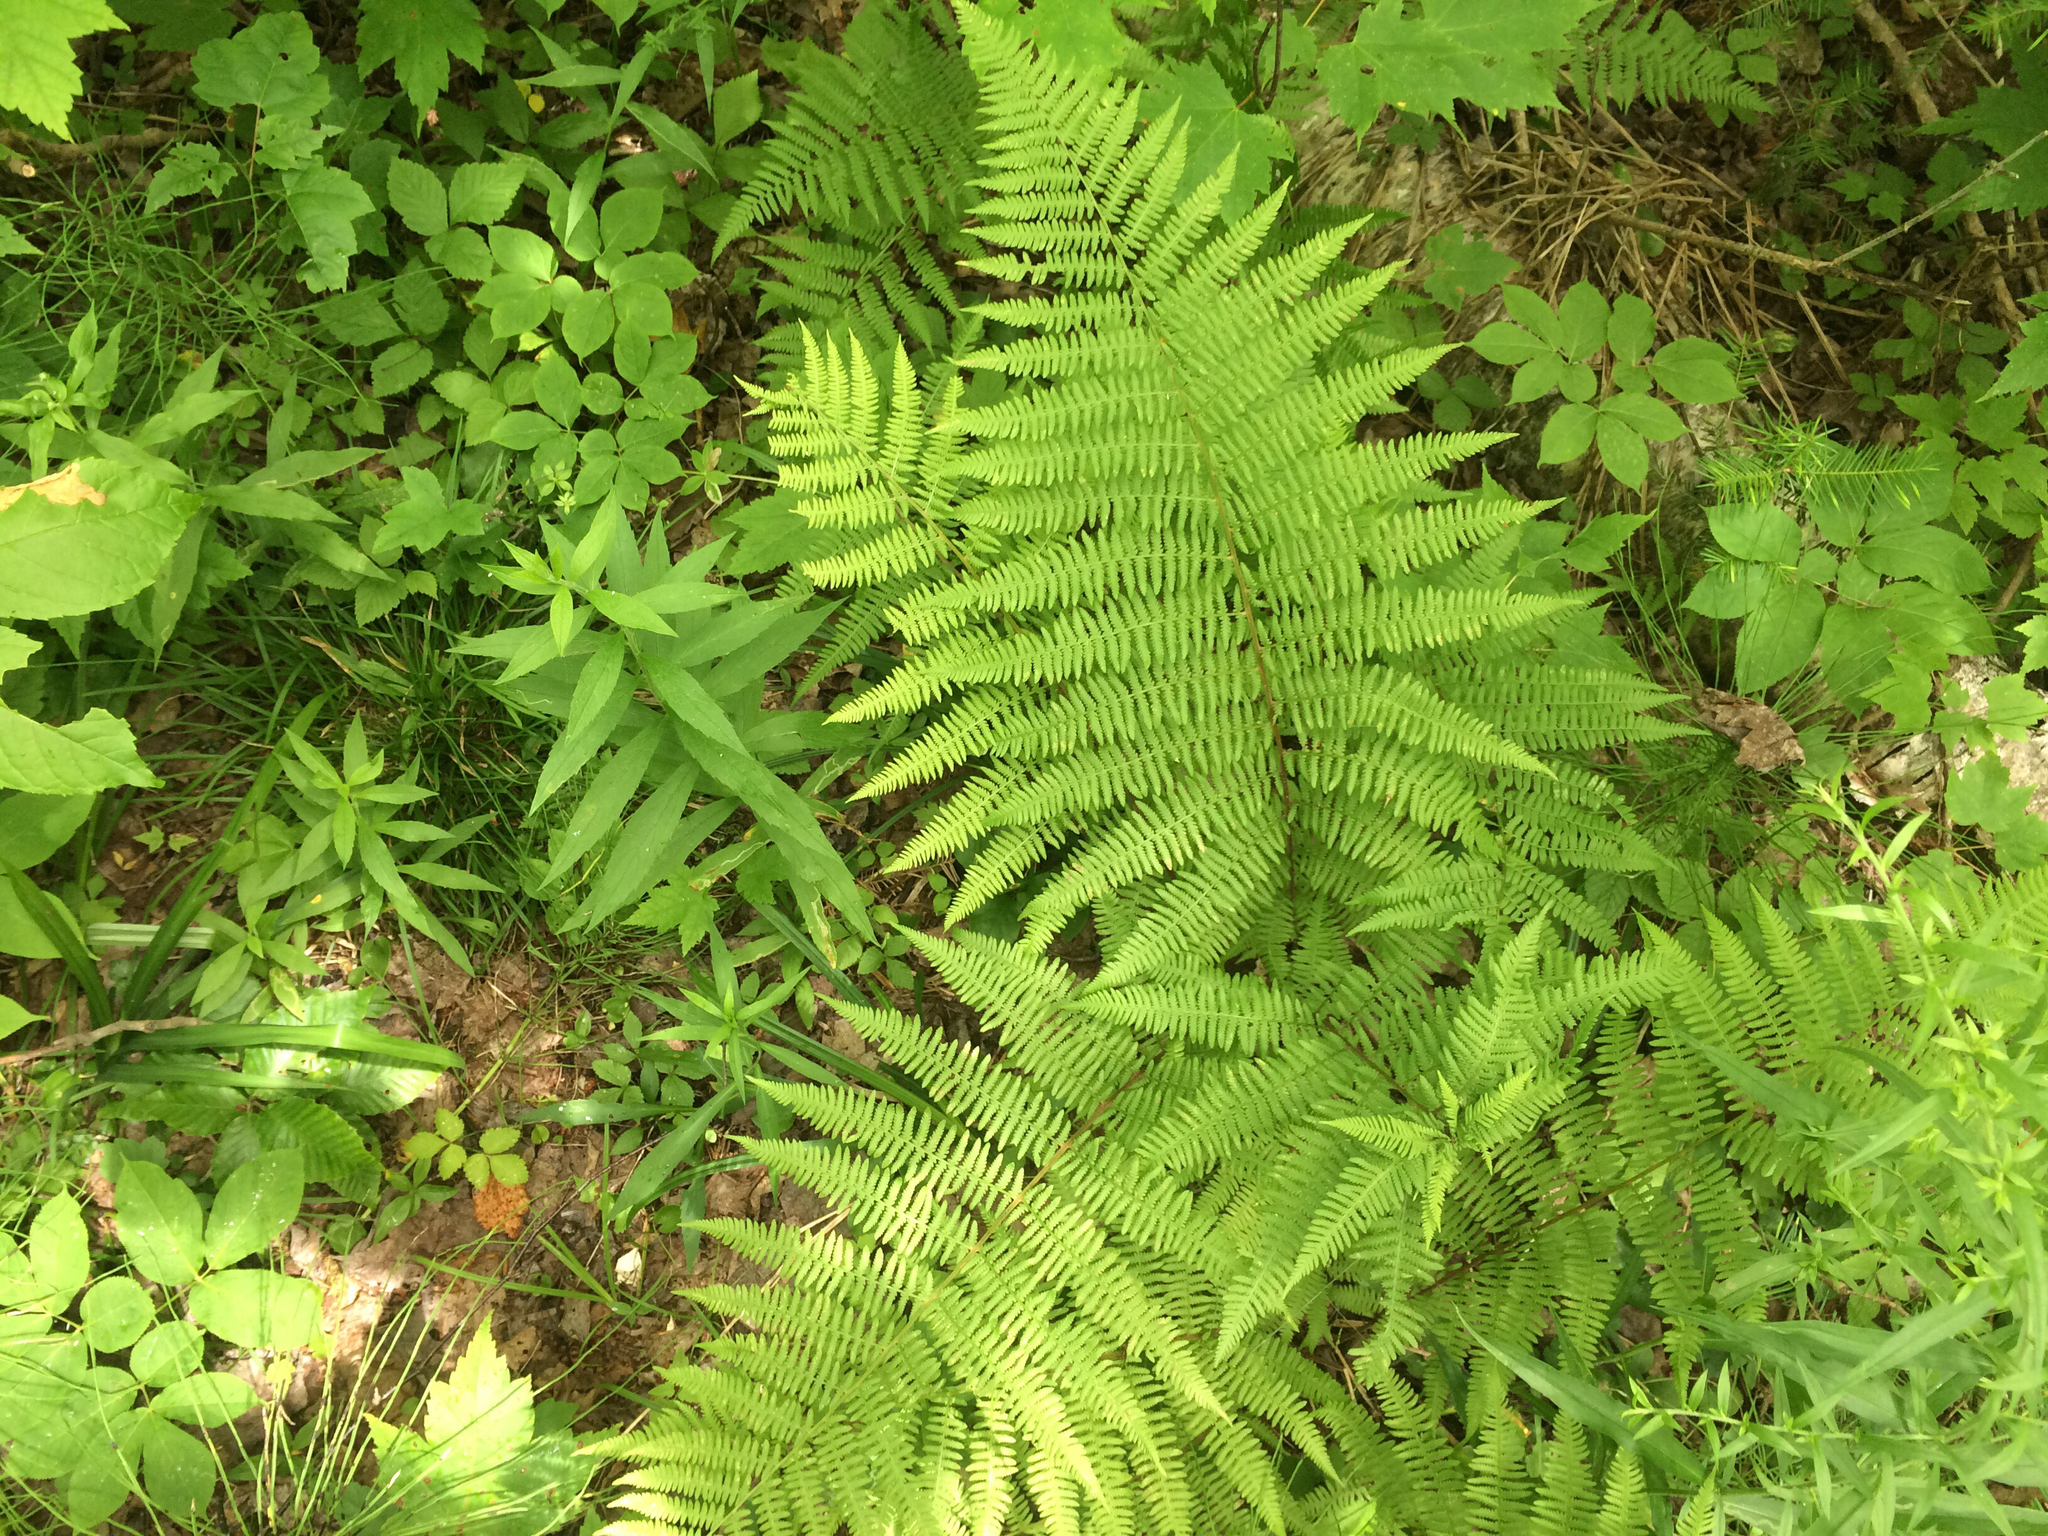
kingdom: Plantae
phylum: Tracheophyta
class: Polypodiopsida
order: Polypodiales
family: Athyriaceae
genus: Athyrium
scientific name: Athyrium angustum
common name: Northern lady fern
